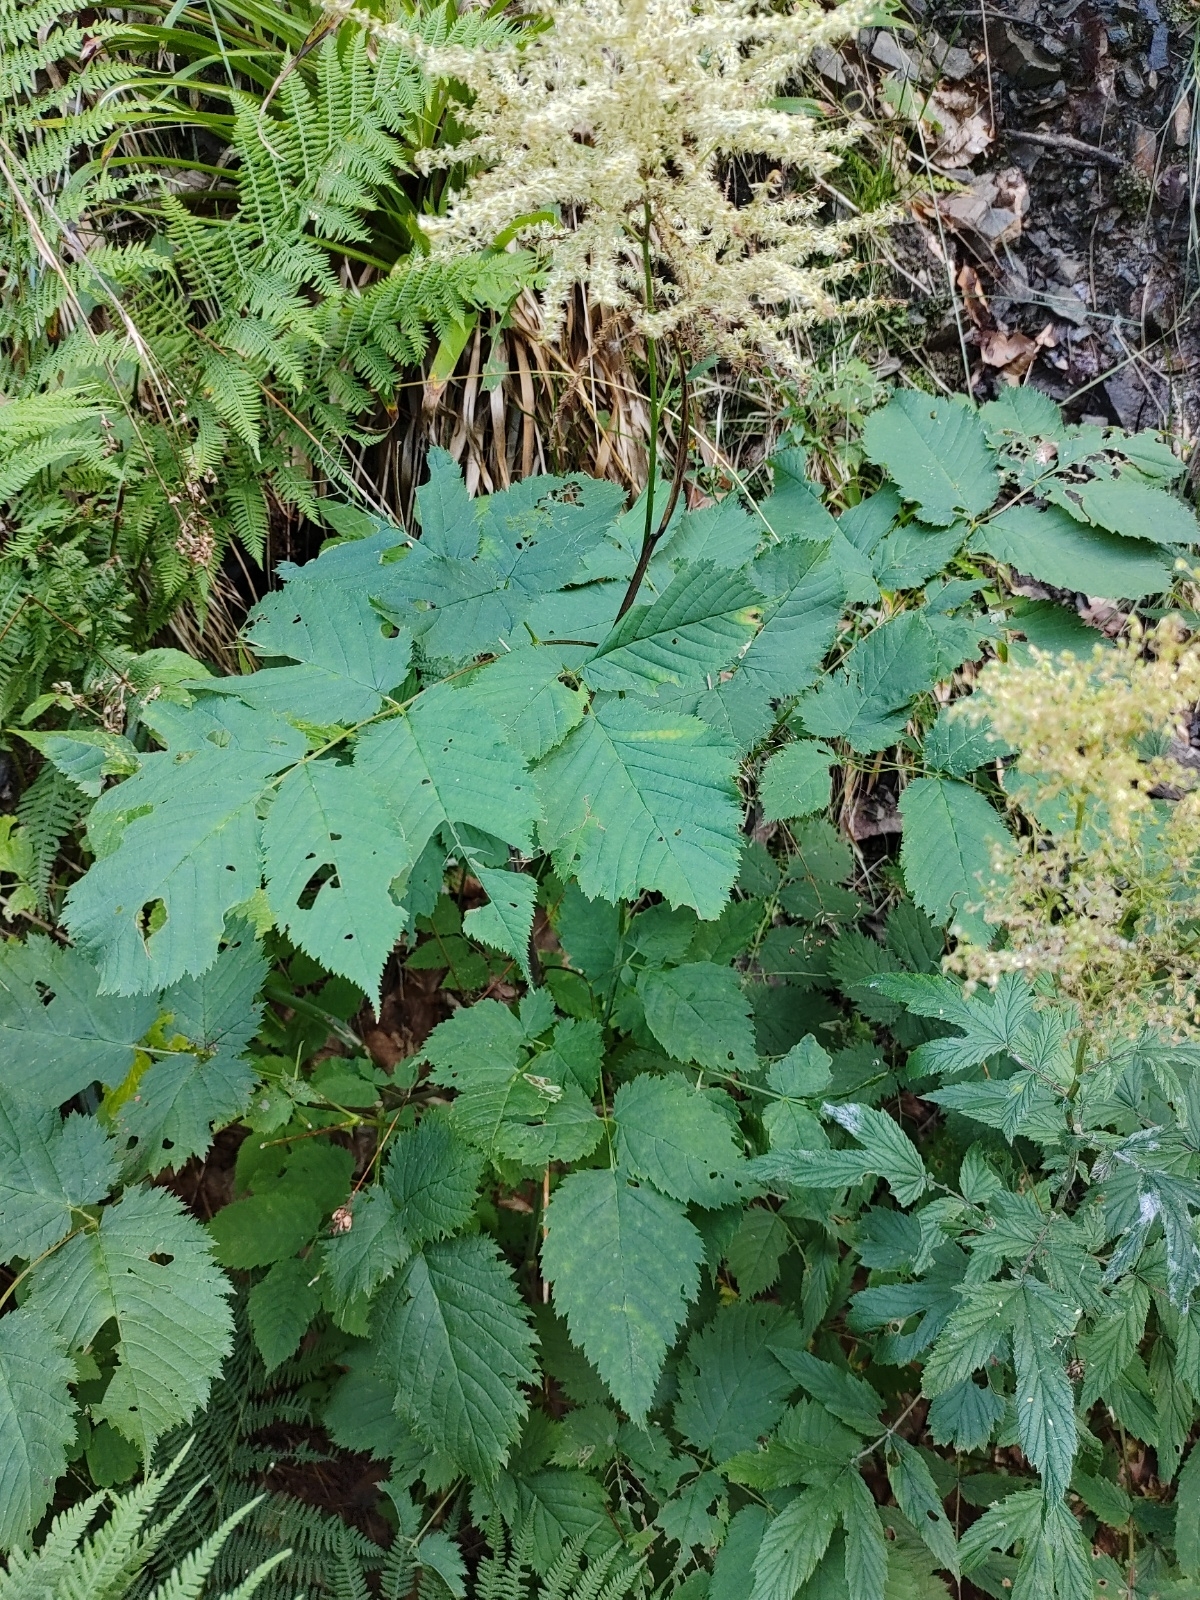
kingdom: Plantae
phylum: Tracheophyta
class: Magnoliopsida
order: Rosales
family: Rosaceae
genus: Aruncus
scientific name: Aruncus dioicus
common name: Buck's-beard
